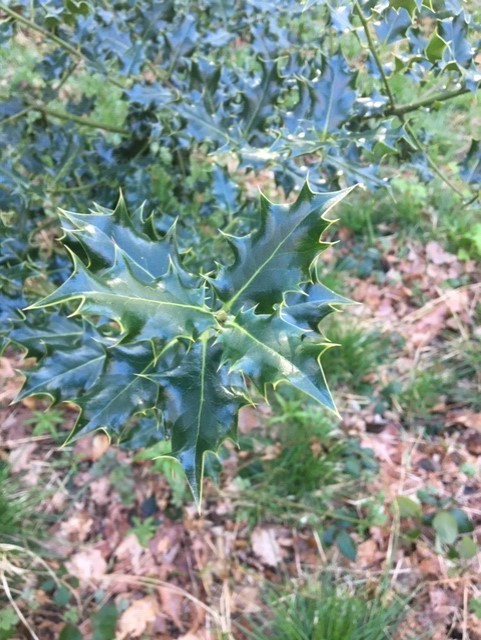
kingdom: Plantae
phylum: Tracheophyta
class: Magnoliopsida
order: Aquifoliales
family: Aquifoliaceae
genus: Ilex
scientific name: Ilex aquifolium
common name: English holly
